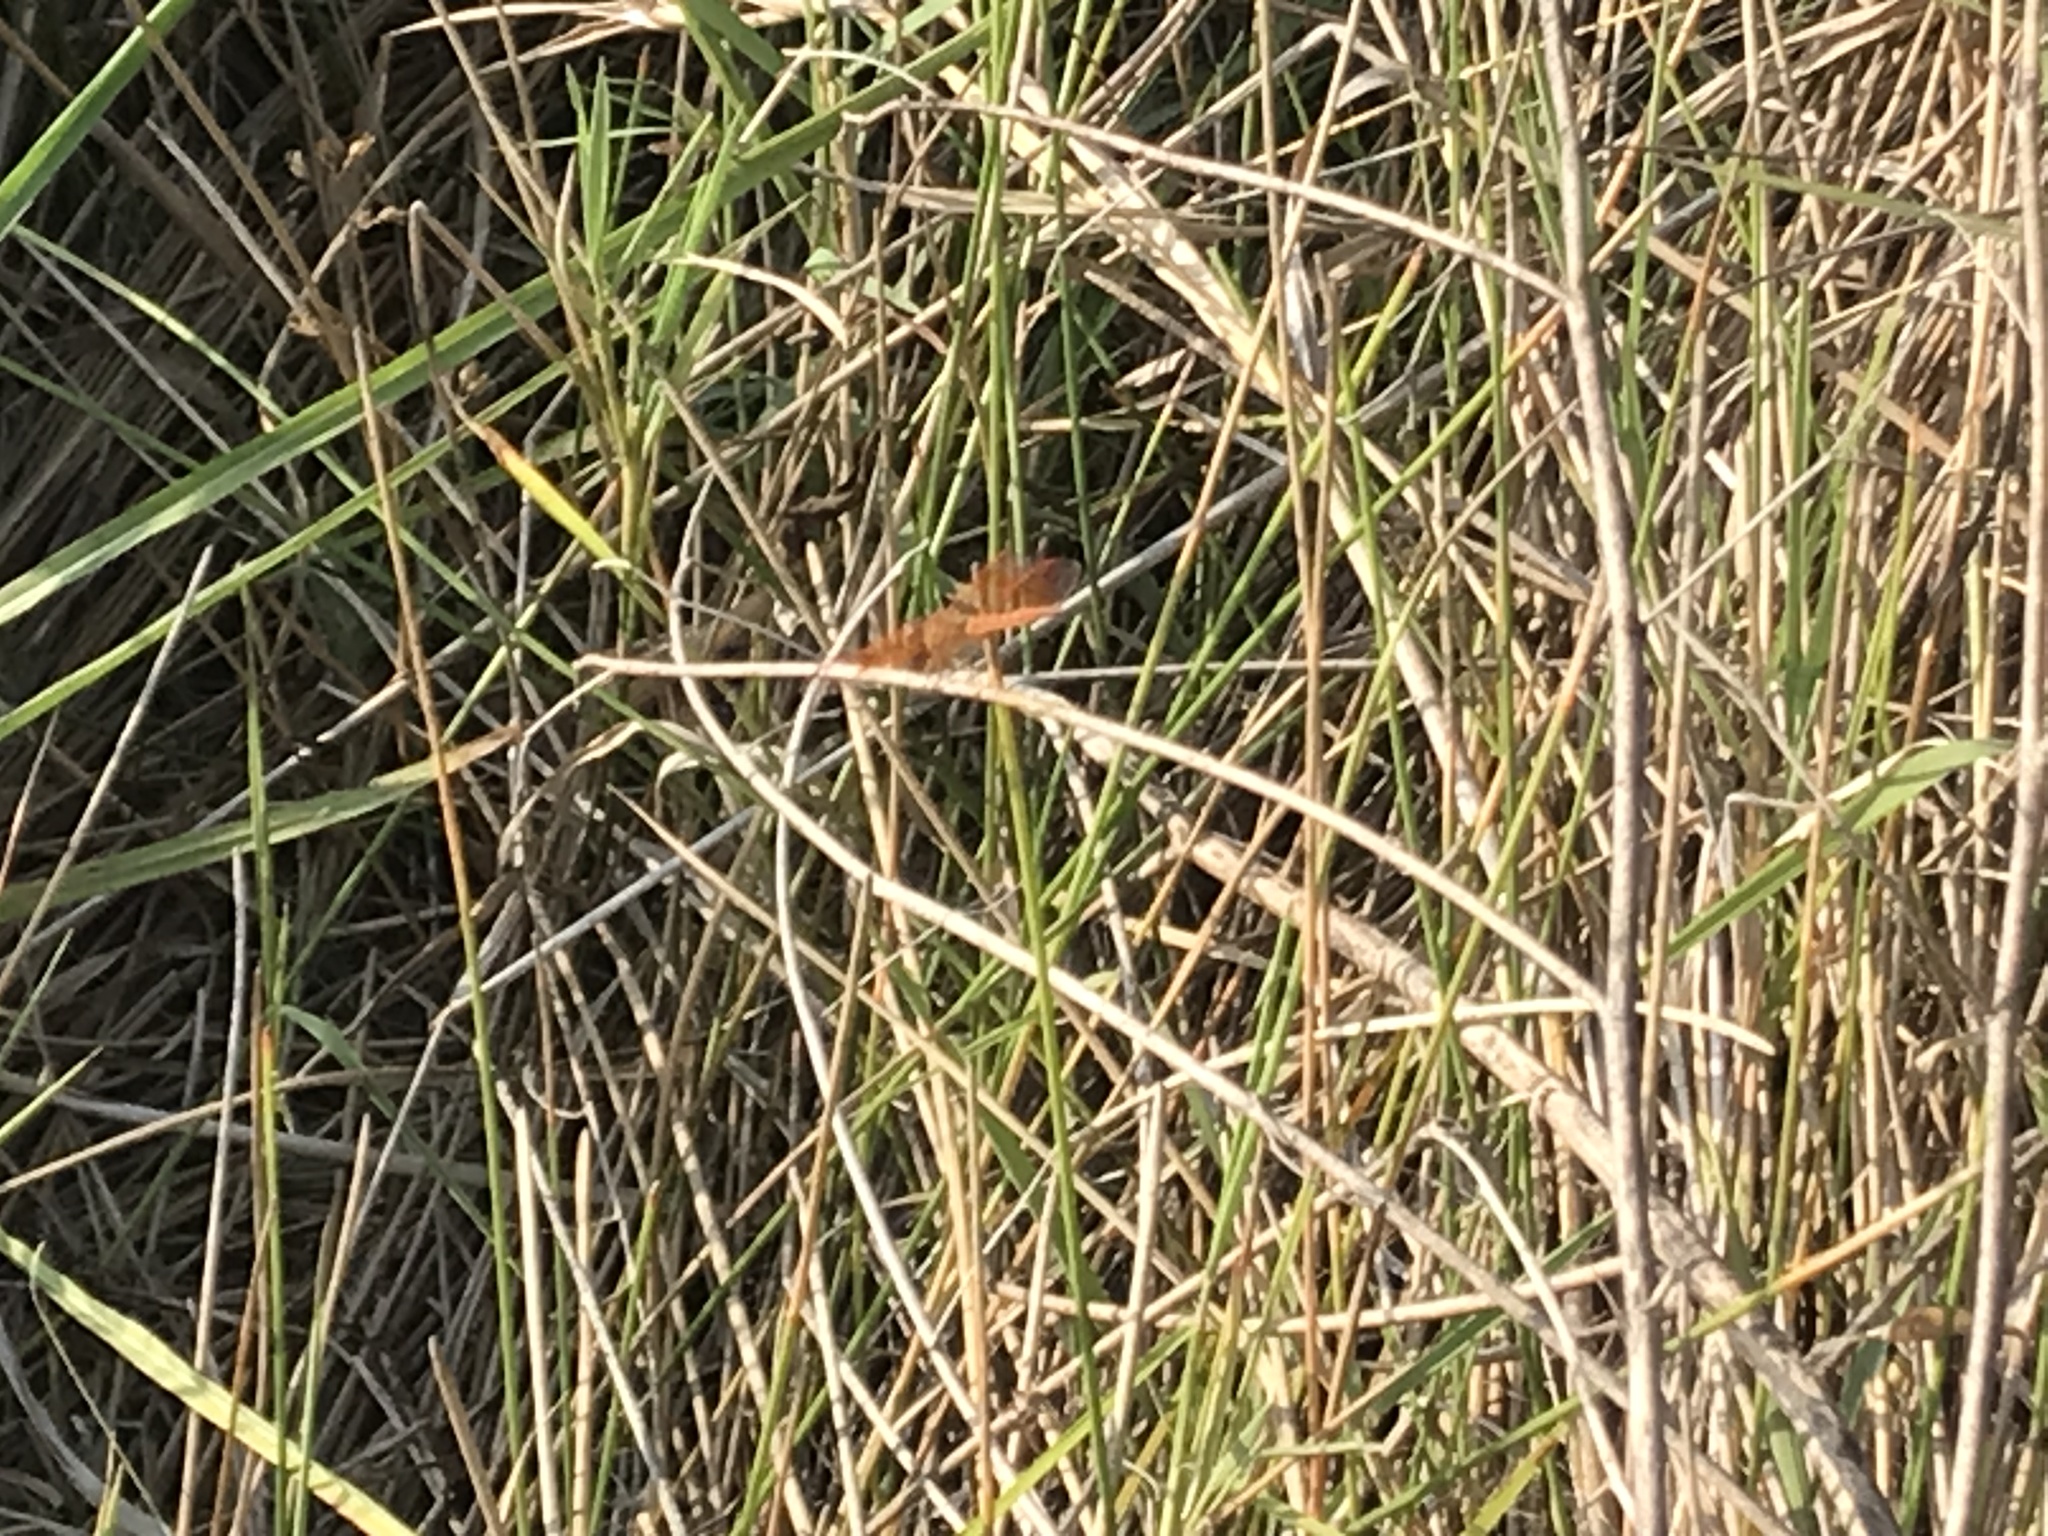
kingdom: Animalia
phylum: Arthropoda
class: Insecta
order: Odonata
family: Libellulidae
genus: Brachythemis
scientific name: Brachythemis contaminata
